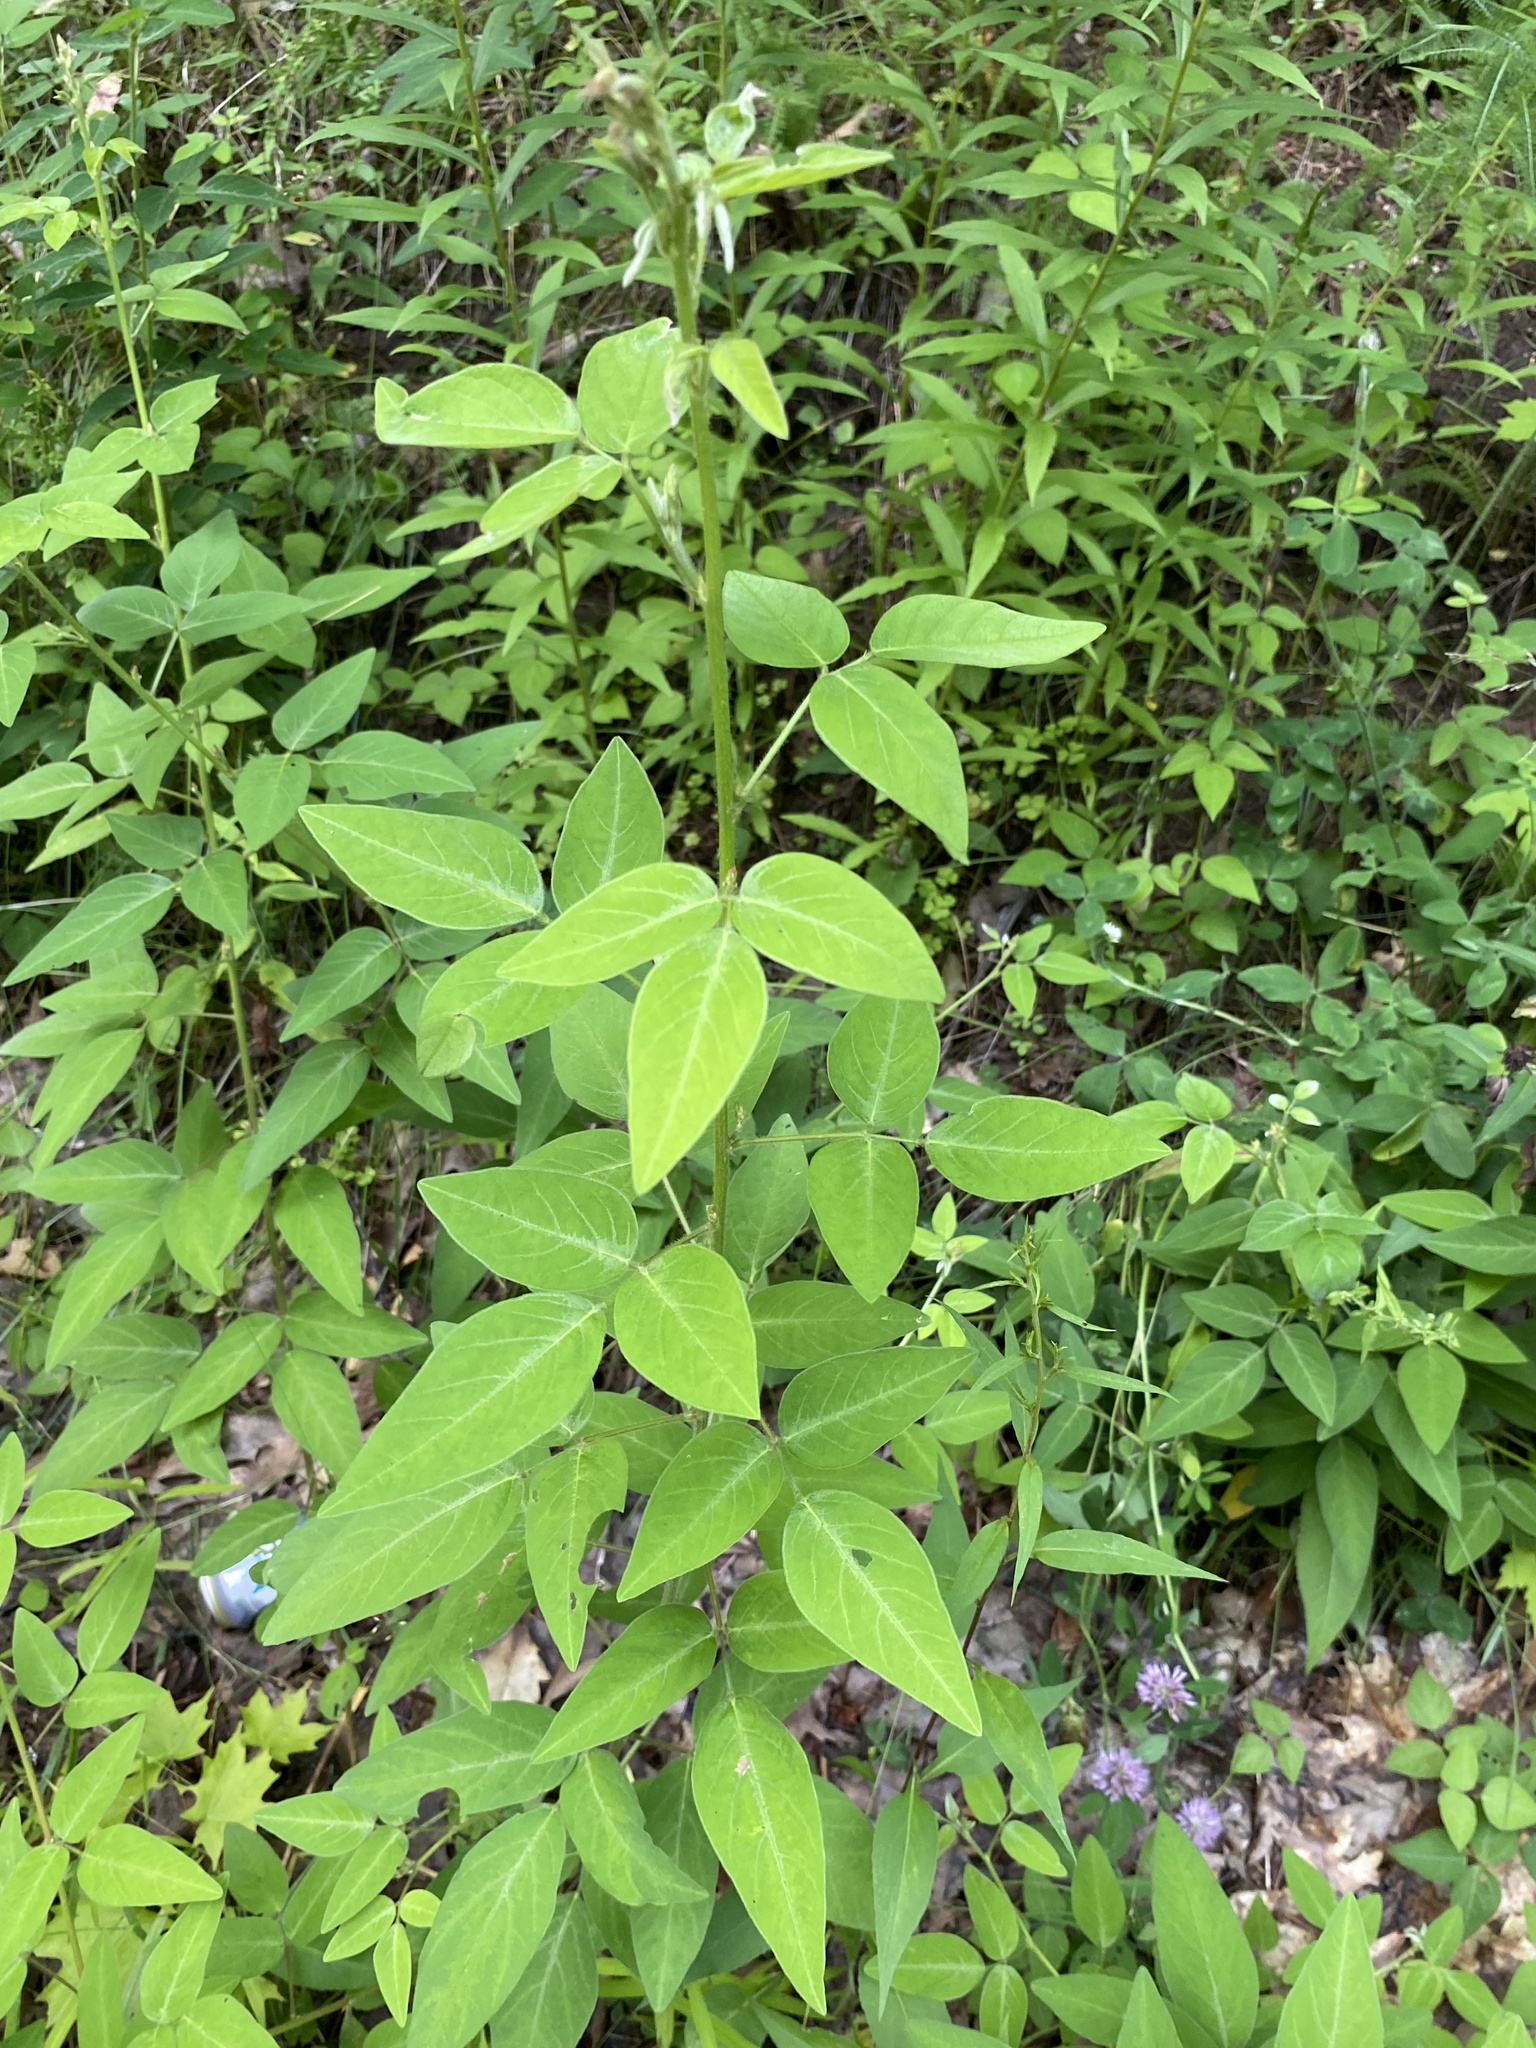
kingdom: Plantae
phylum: Tracheophyta
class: Magnoliopsida
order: Fabales
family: Fabaceae
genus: Desmodium
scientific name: Desmodium perplexum
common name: Perplexed tick trefoil
